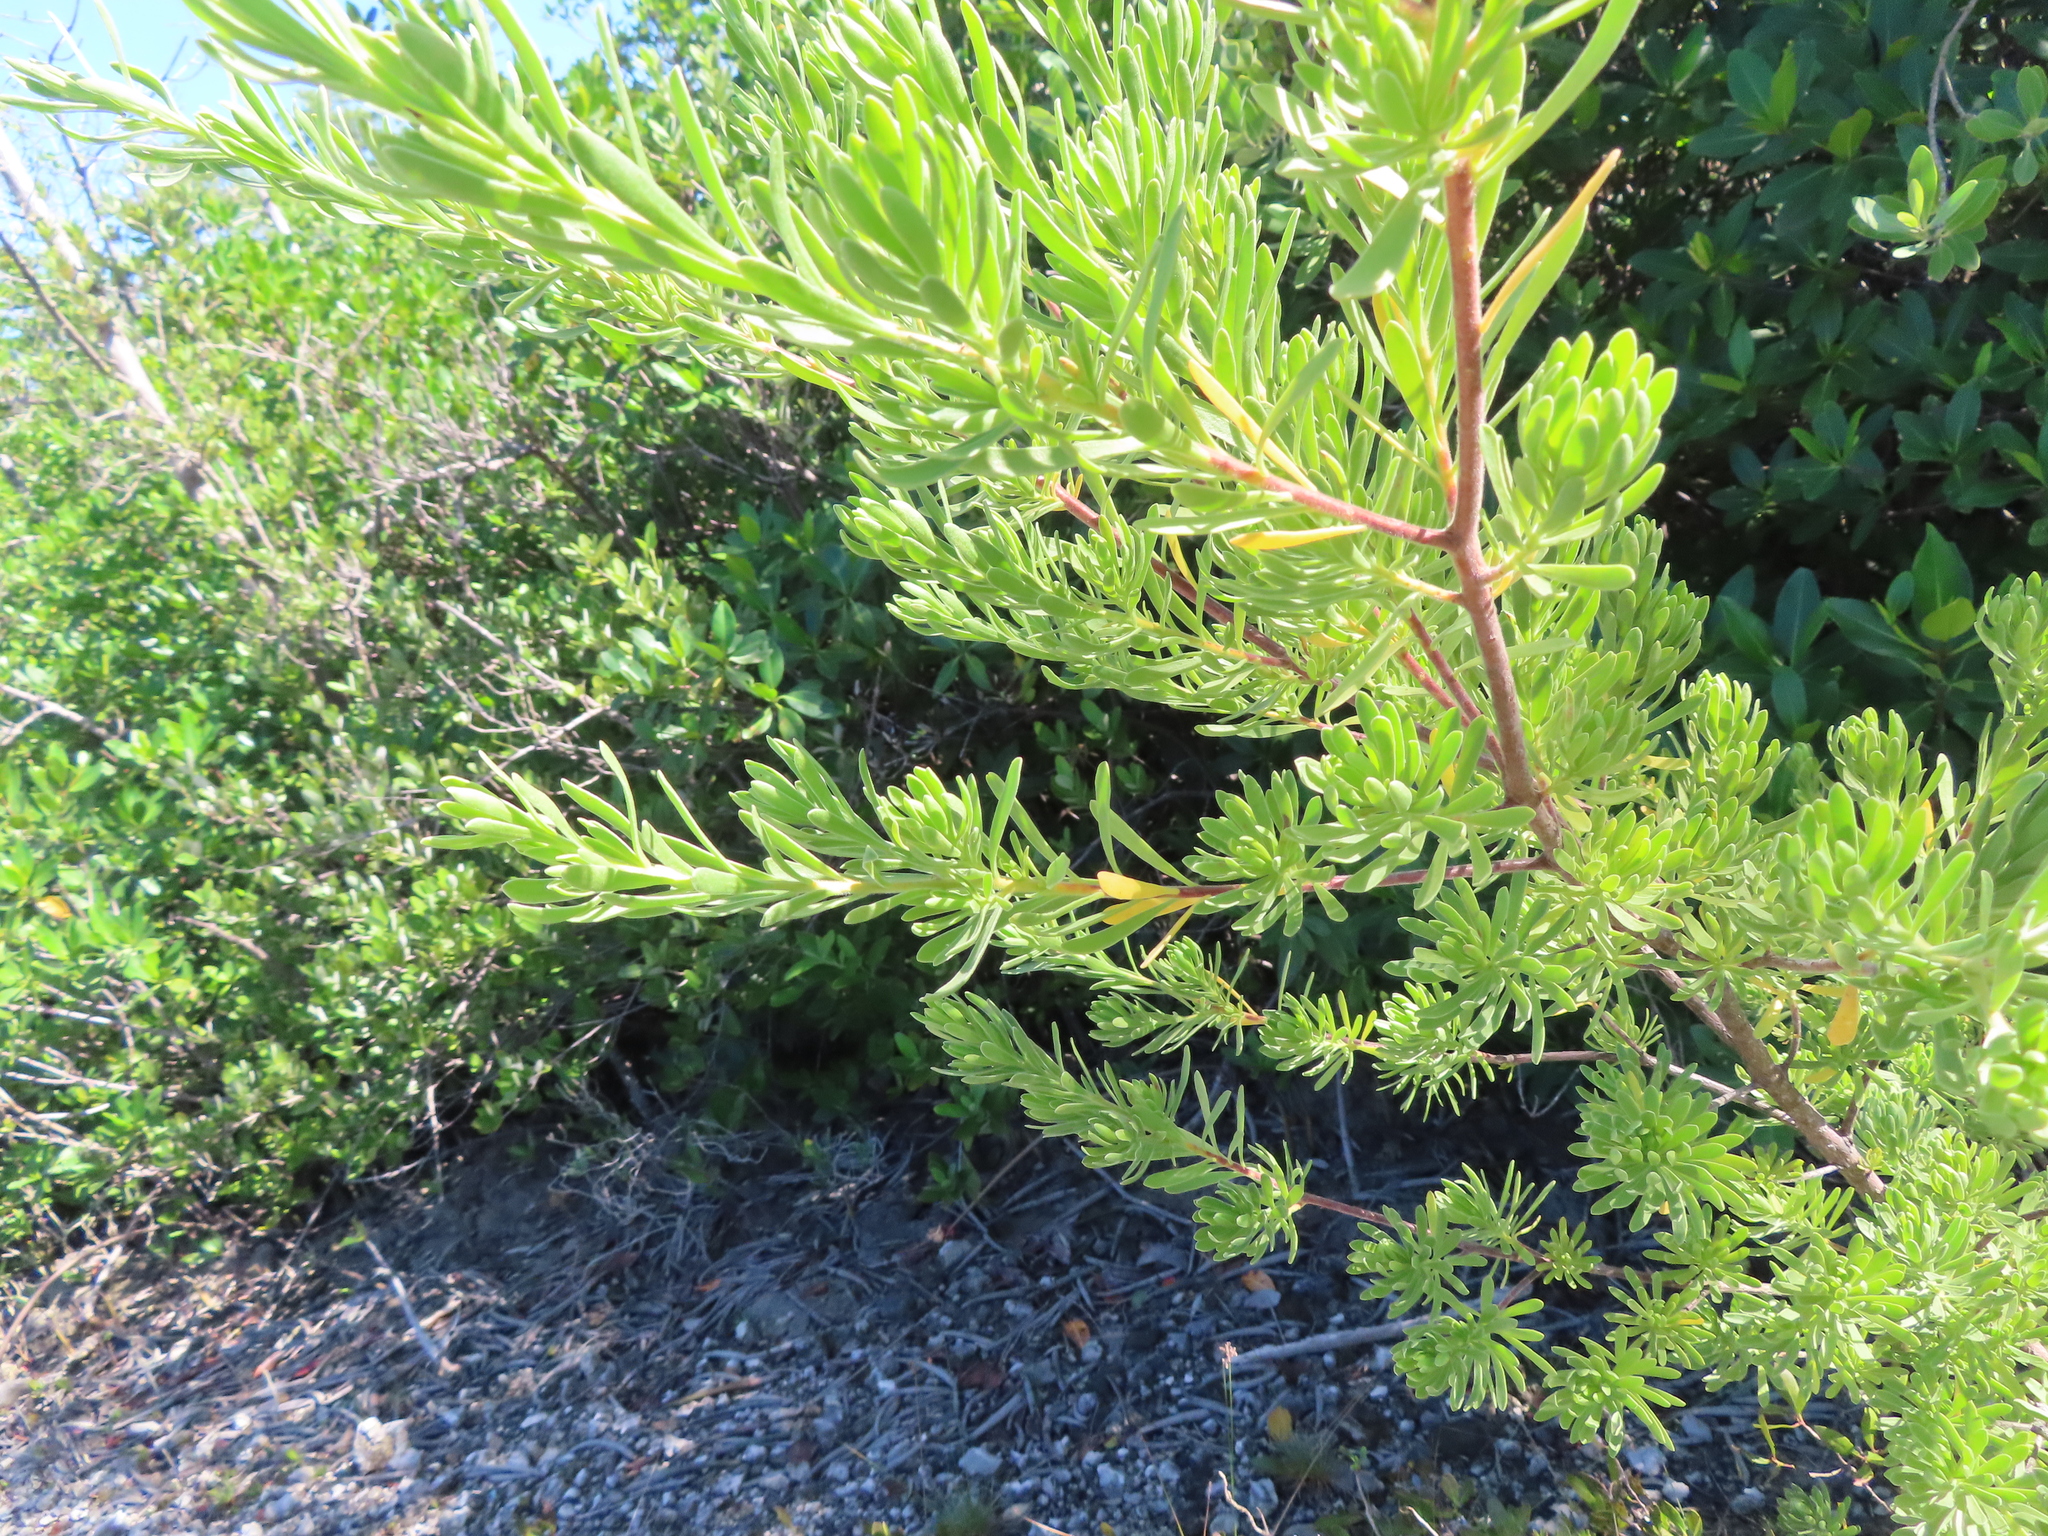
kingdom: Plantae
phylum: Tracheophyta
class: Magnoliopsida
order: Fabales
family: Surianaceae
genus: Suriana
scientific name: Suriana maritima
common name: Bay-cedar
